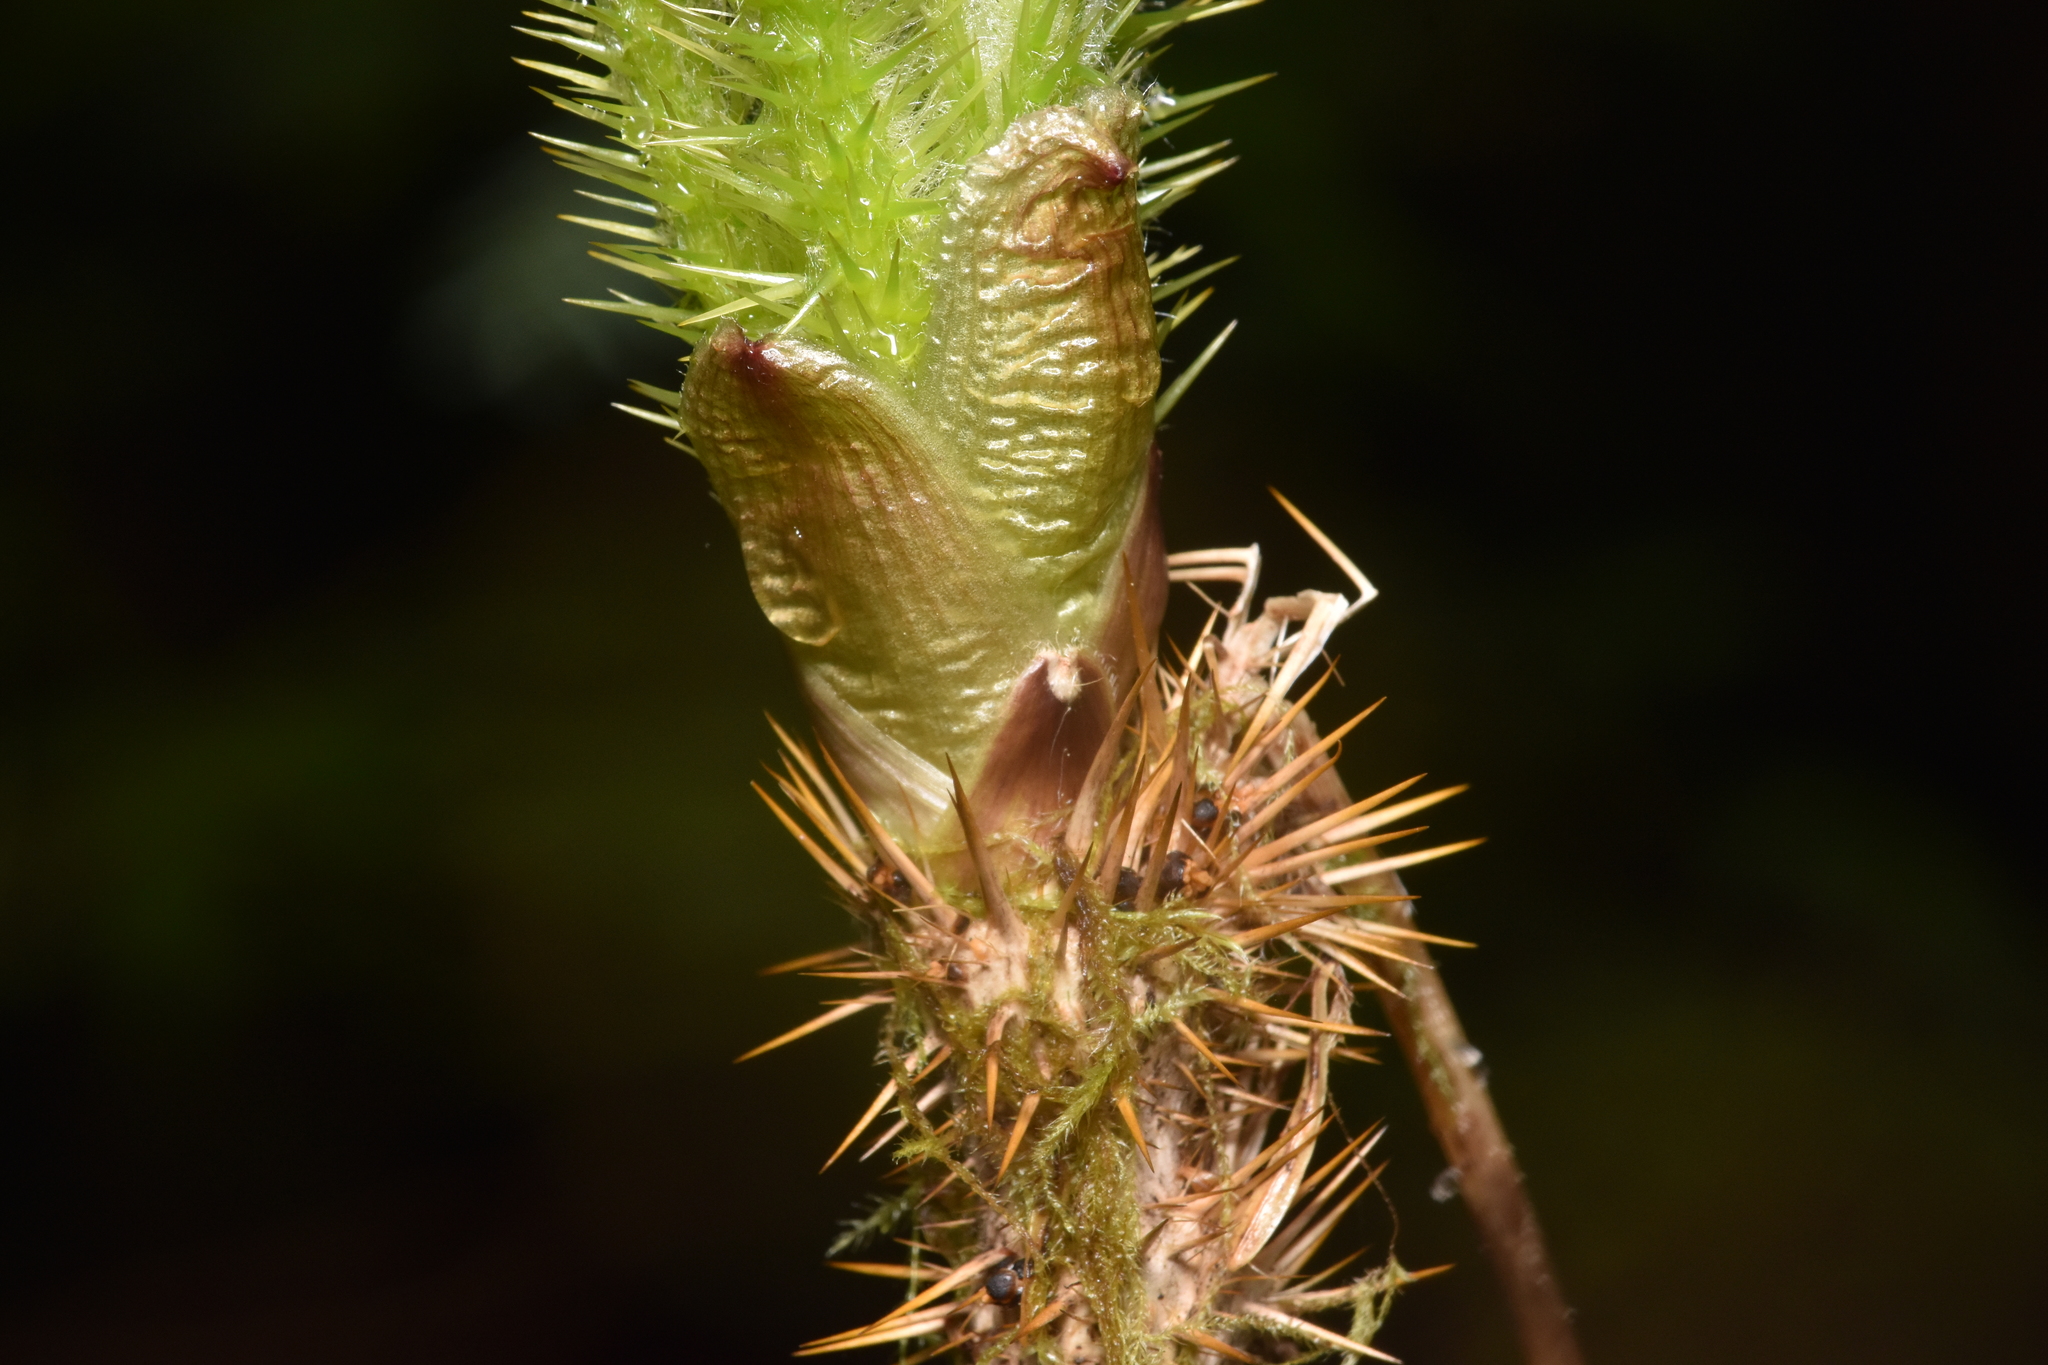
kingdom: Plantae
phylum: Tracheophyta
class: Magnoliopsida
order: Apiales
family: Araliaceae
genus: Oplopanax
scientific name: Oplopanax horridus
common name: Devil's walking-stick
